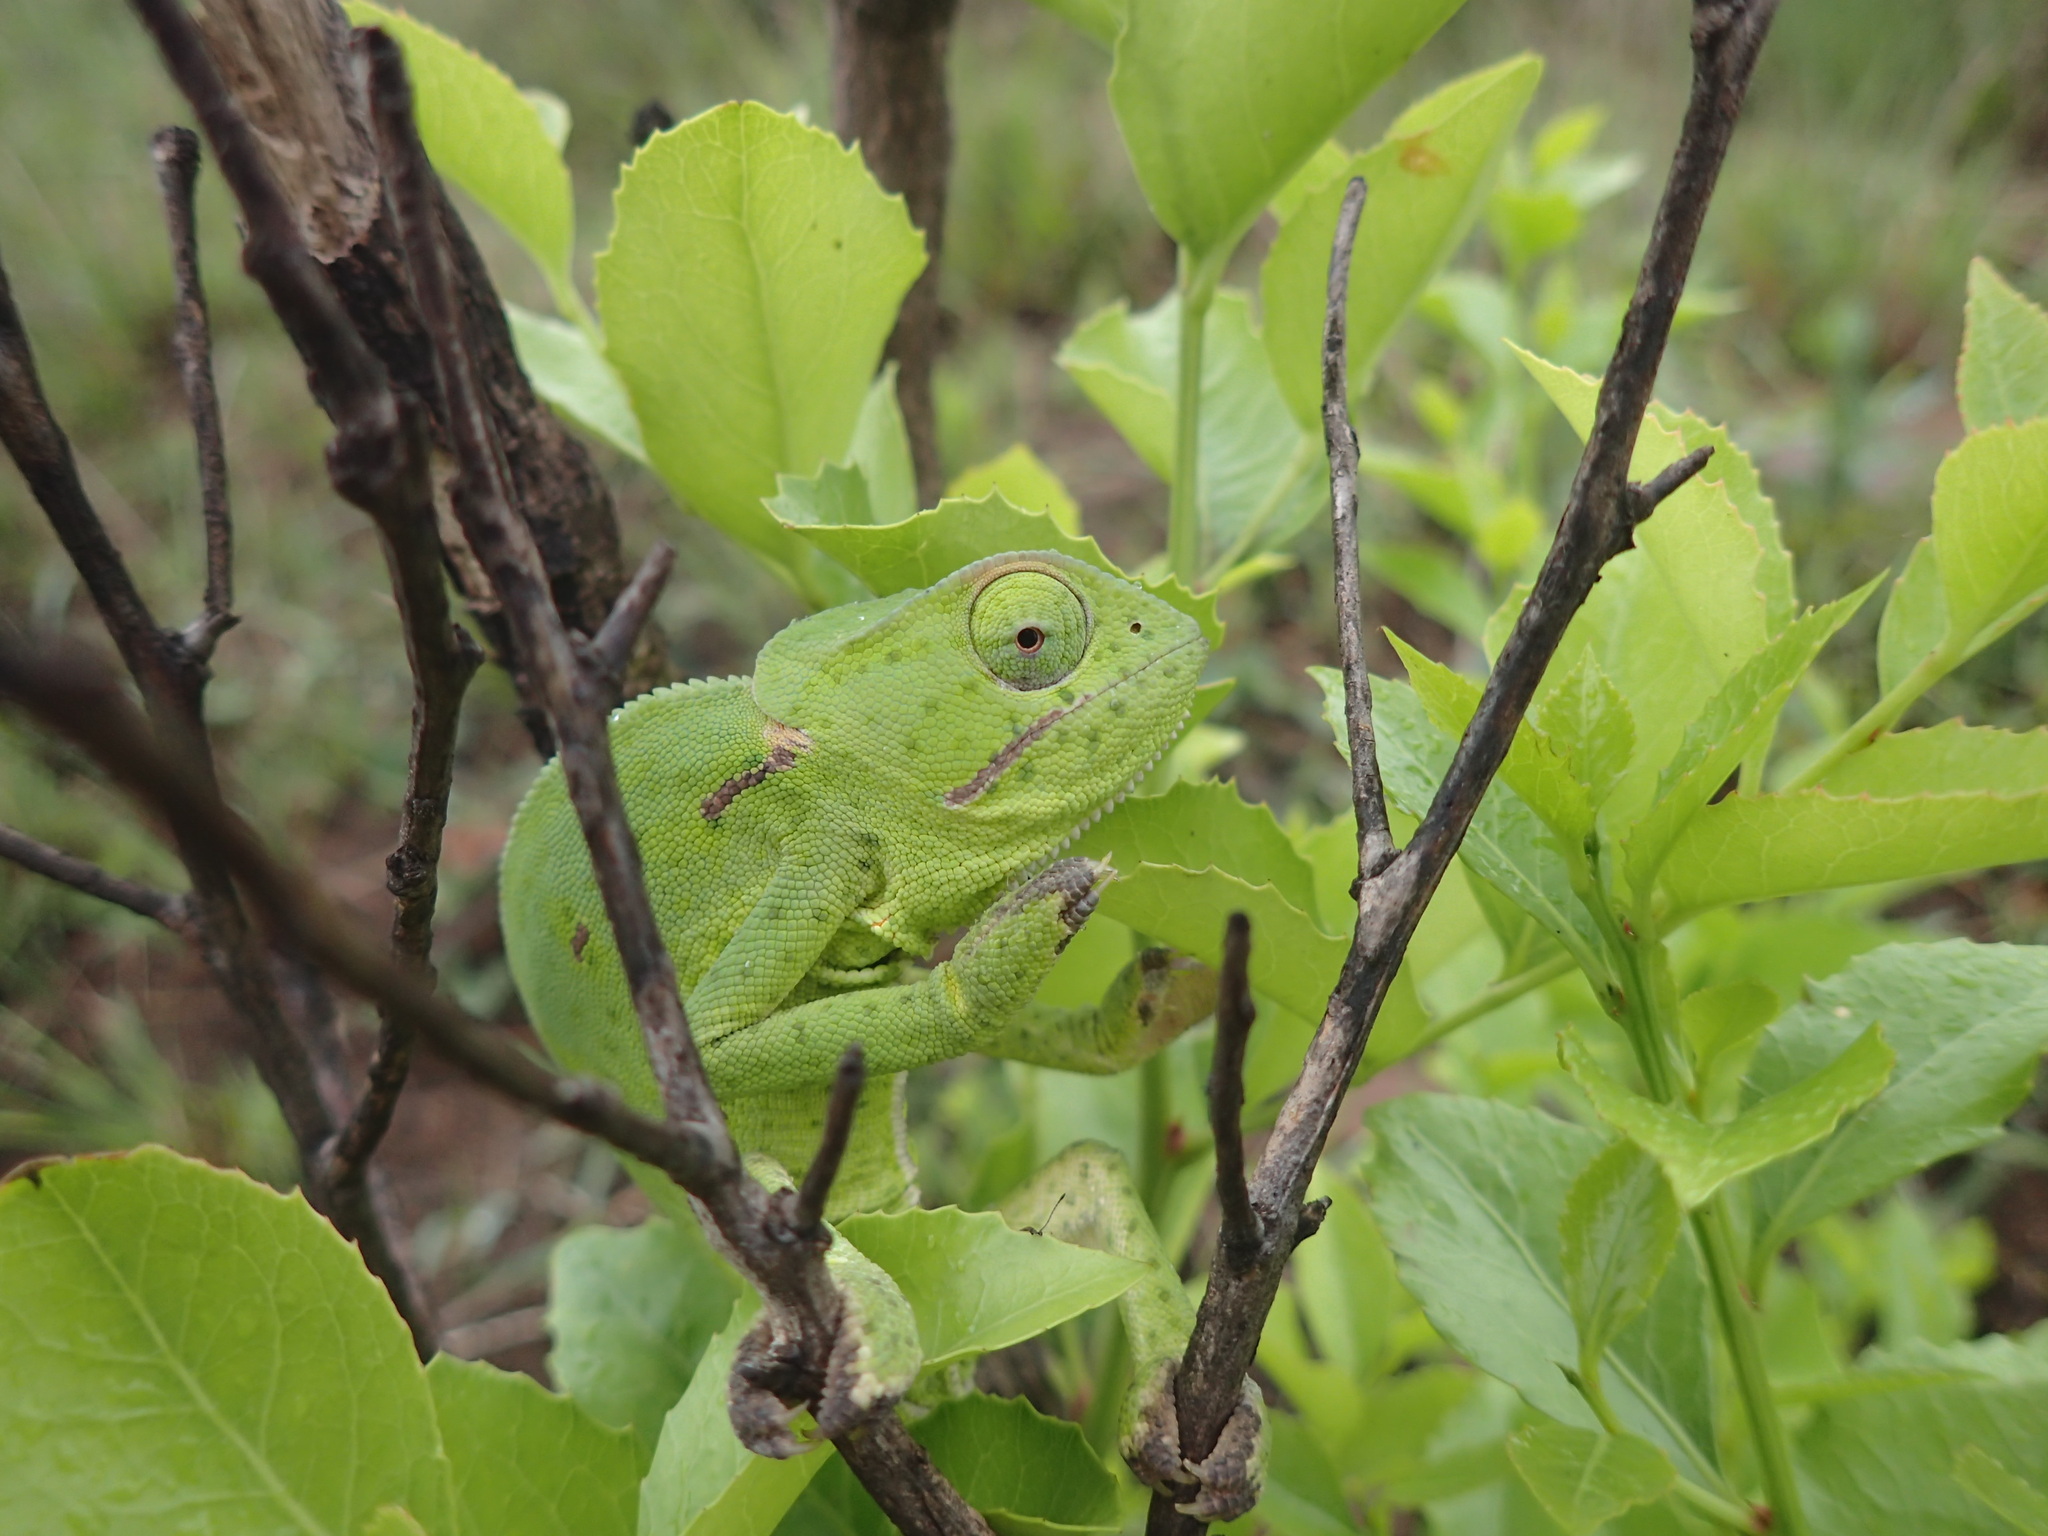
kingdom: Animalia
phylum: Chordata
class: Squamata
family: Chamaeleonidae
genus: Chamaeleo
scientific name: Chamaeleo dilepis
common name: Flapneck chameleon
